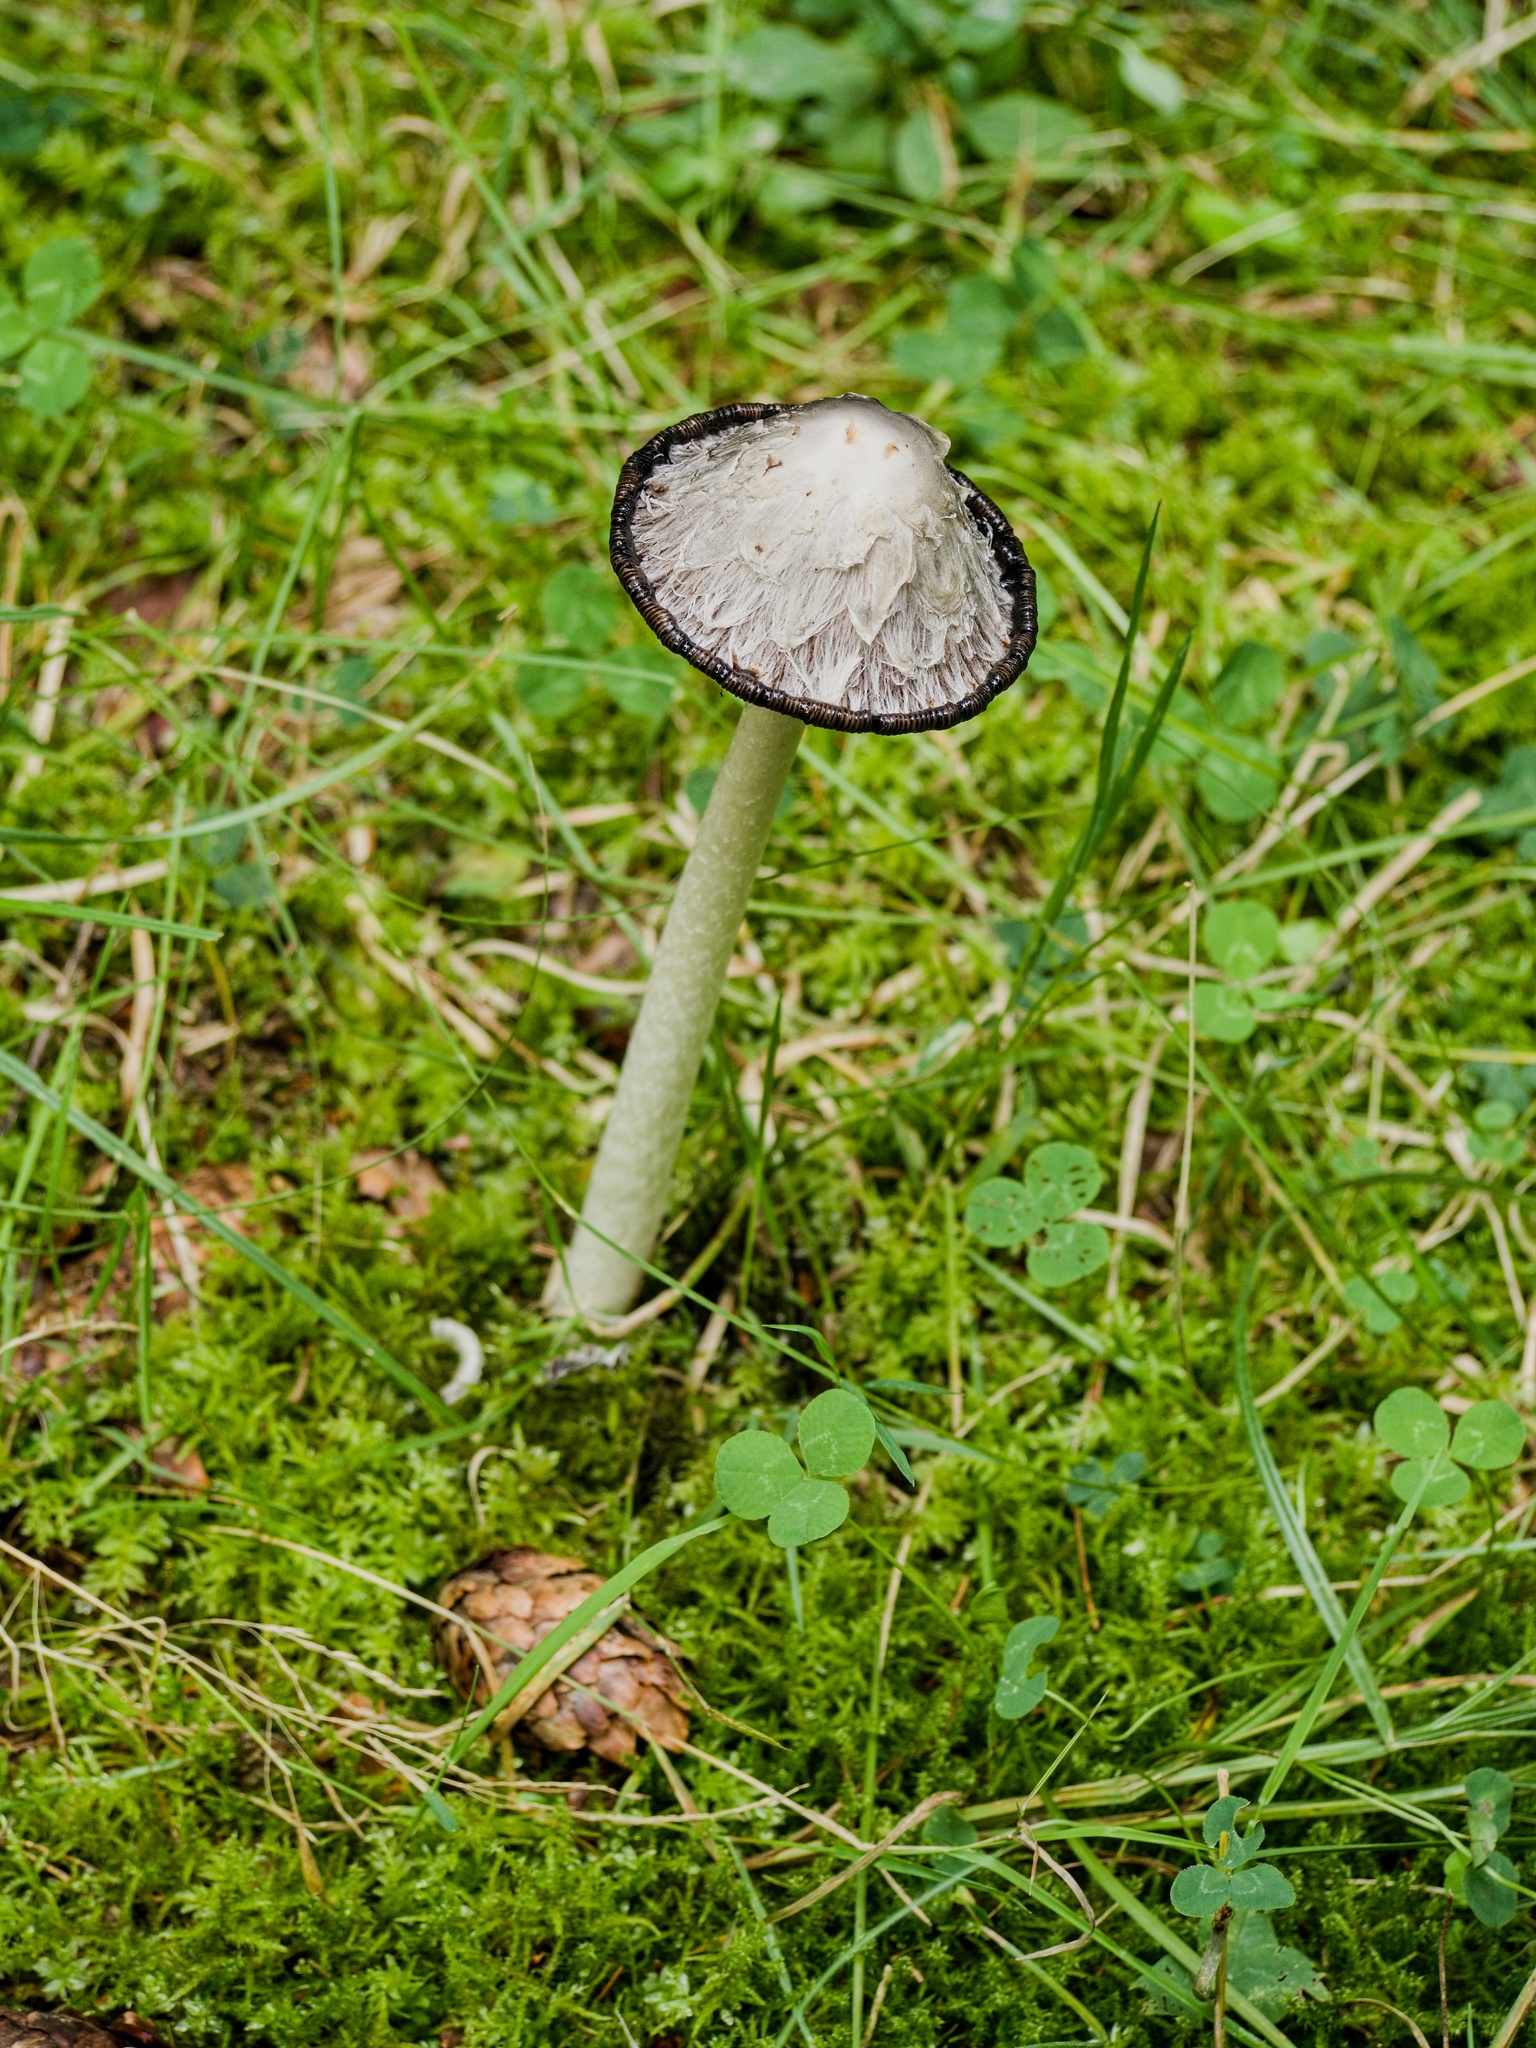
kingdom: Fungi
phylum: Basidiomycota
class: Agaricomycetes
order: Agaricales
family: Agaricaceae
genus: Coprinus
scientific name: Coprinus comatus
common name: Lawyer's wig
